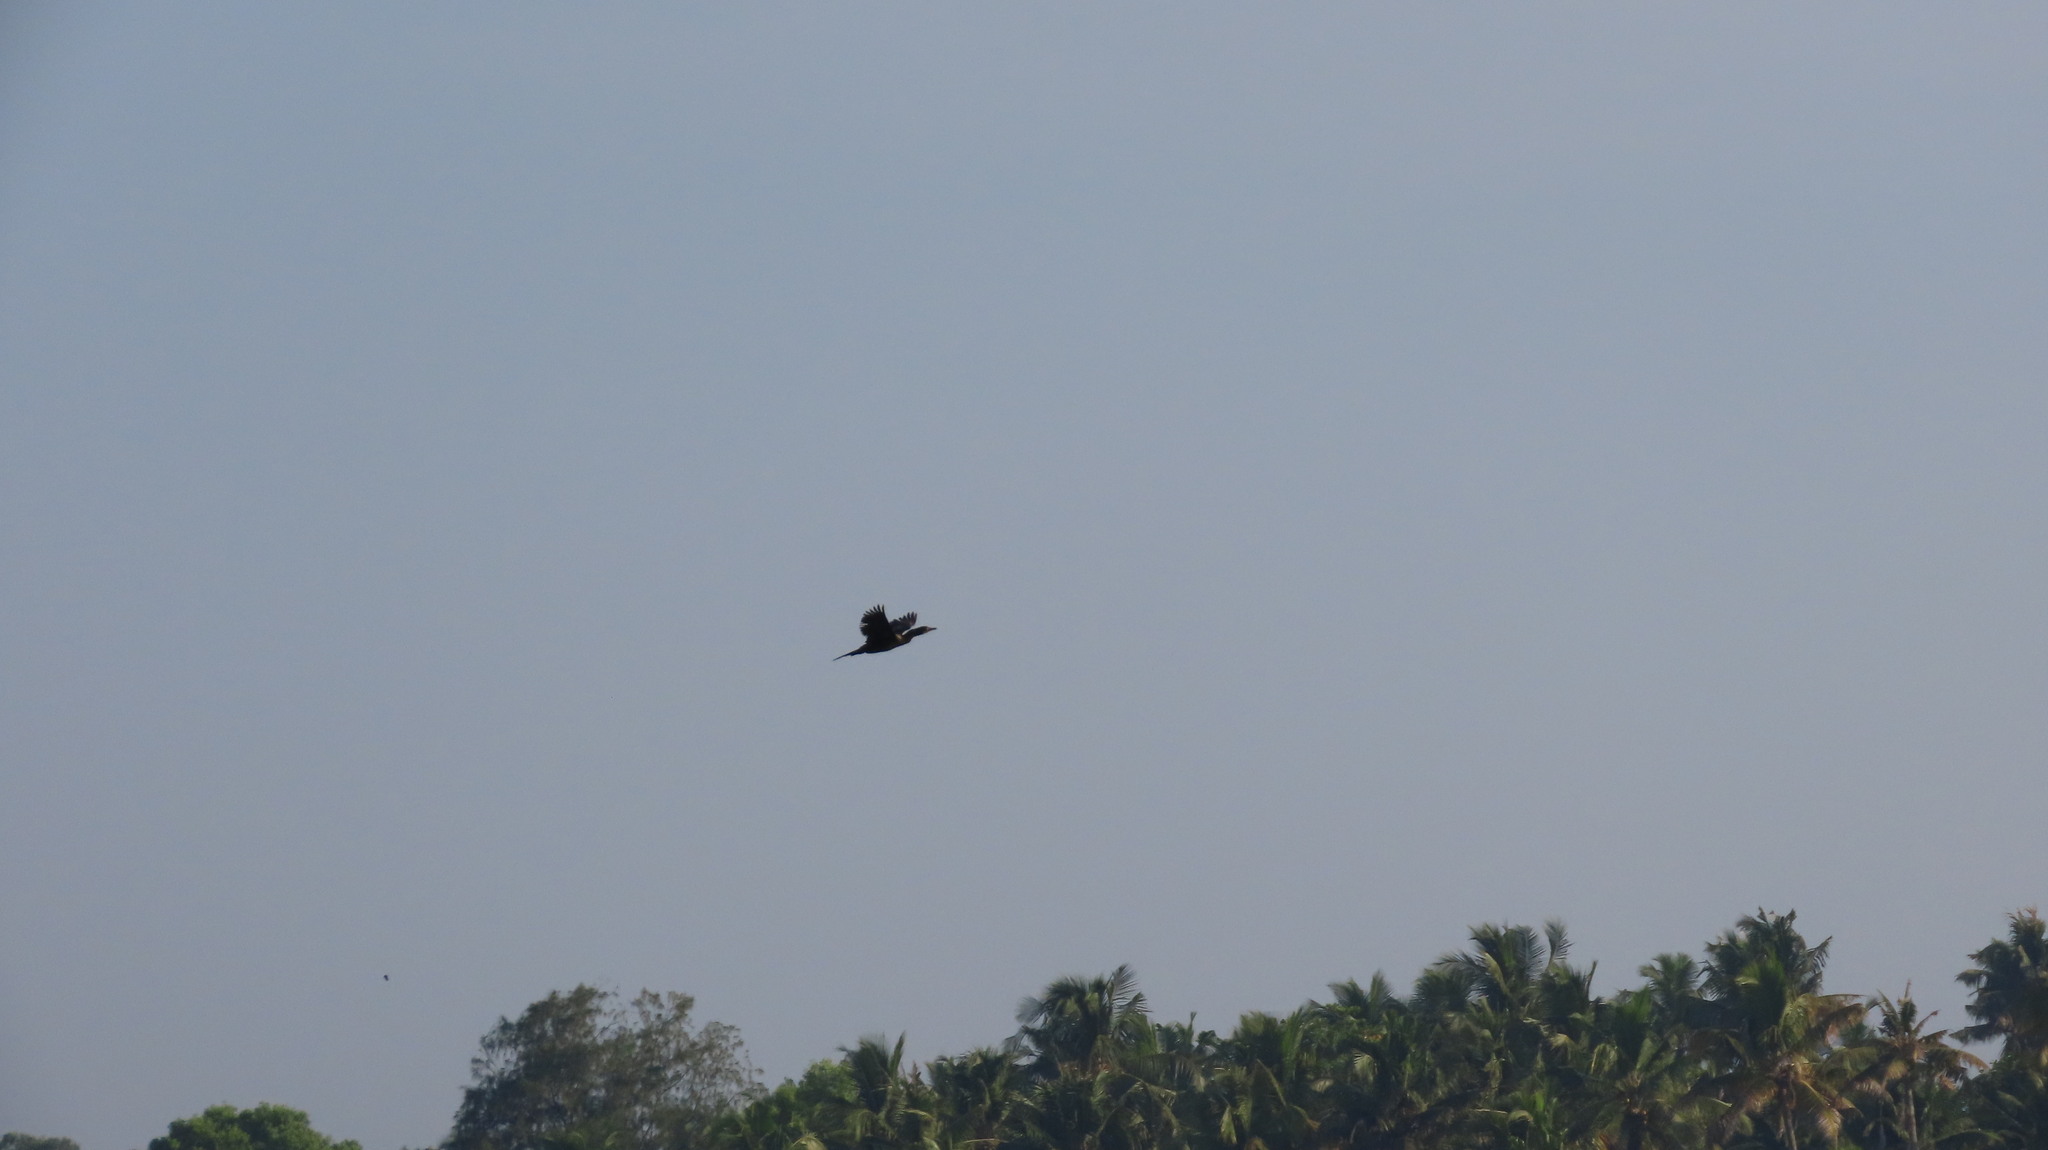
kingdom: Animalia
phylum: Chordata
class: Aves
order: Suliformes
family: Phalacrocoracidae
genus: Microcarbo
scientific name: Microcarbo niger
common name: Little cormorant
